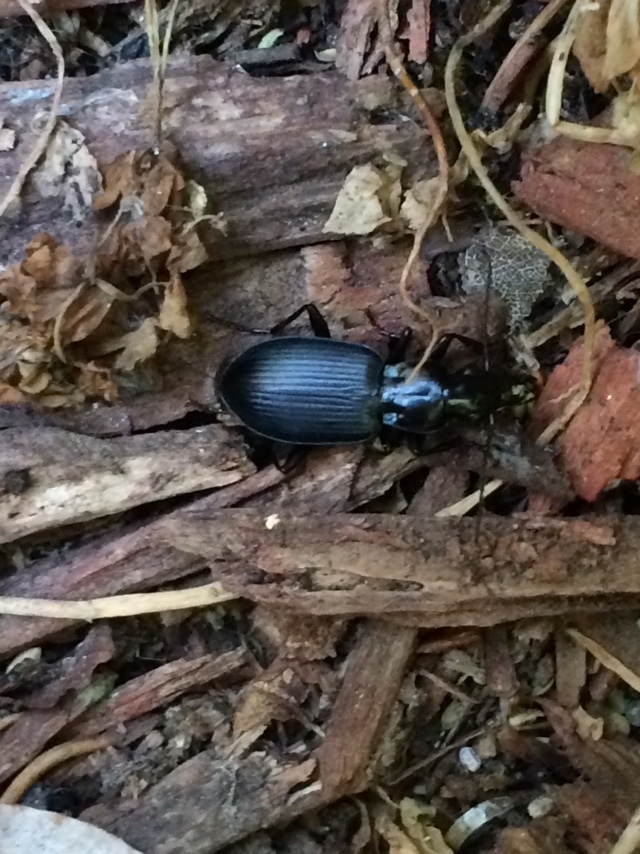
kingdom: Animalia
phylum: Arthropoda
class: Insecta
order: Coleoptera
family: Carabidae
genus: Laemostenus
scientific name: Laemostenus complanatus
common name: Cosmopolitan ground beetle
